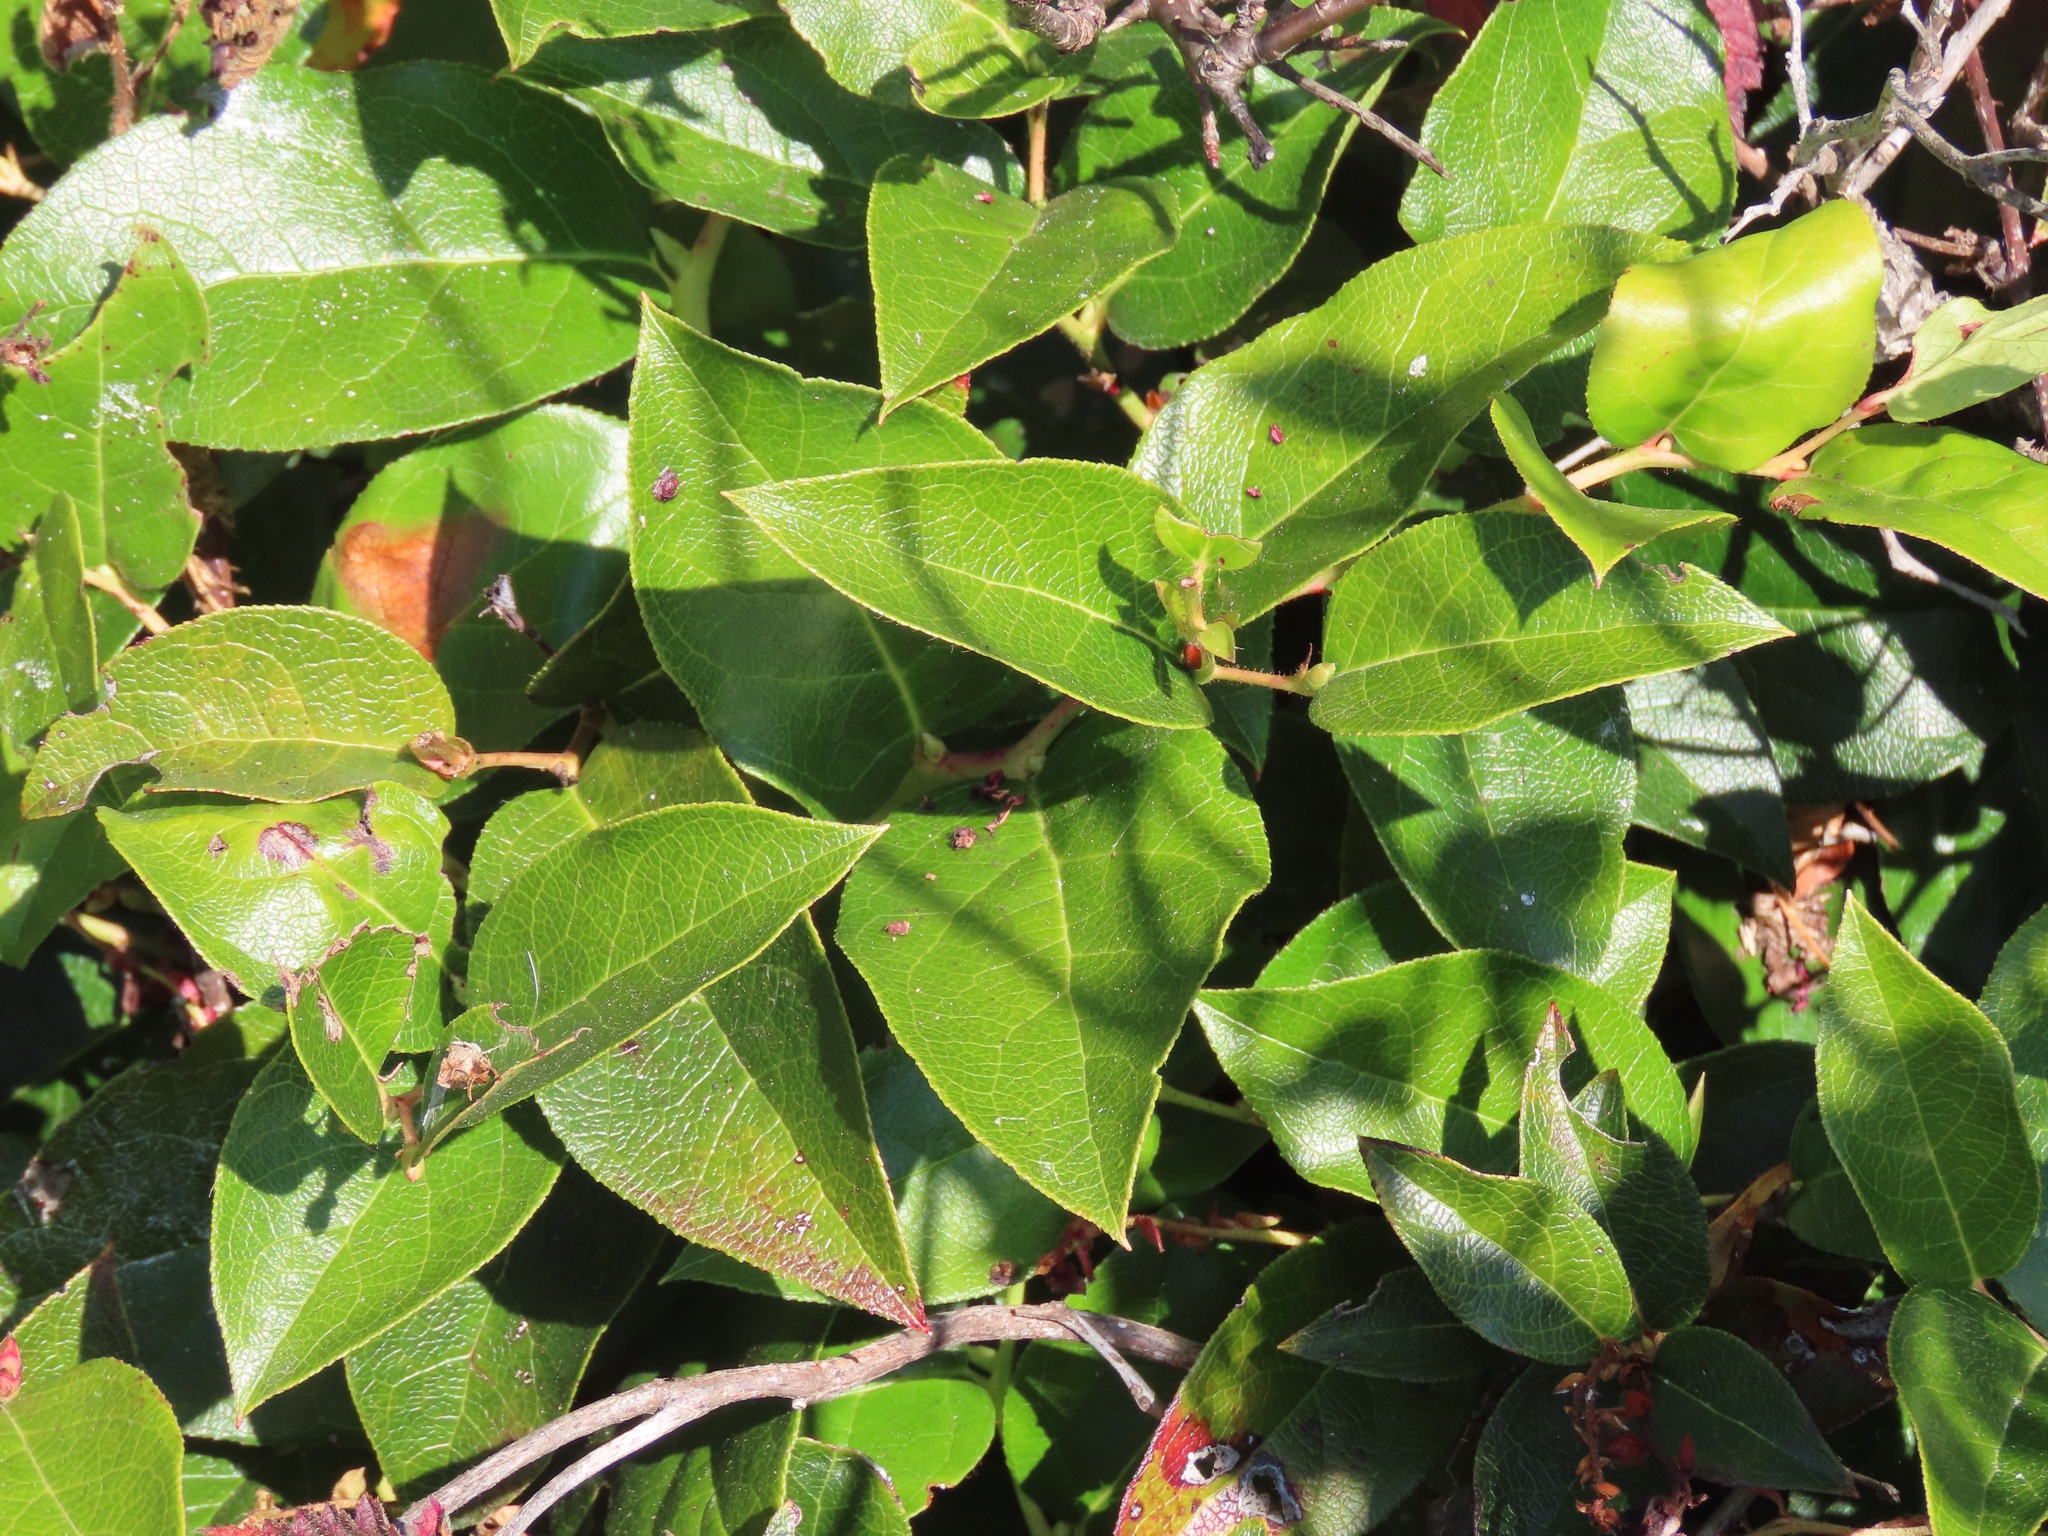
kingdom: Plantae
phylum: Tracheophyta
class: Magnoliopsida
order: Ericales
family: Ericaceae
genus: Gaultheria
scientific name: Gaultheria shallon
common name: Shallon
